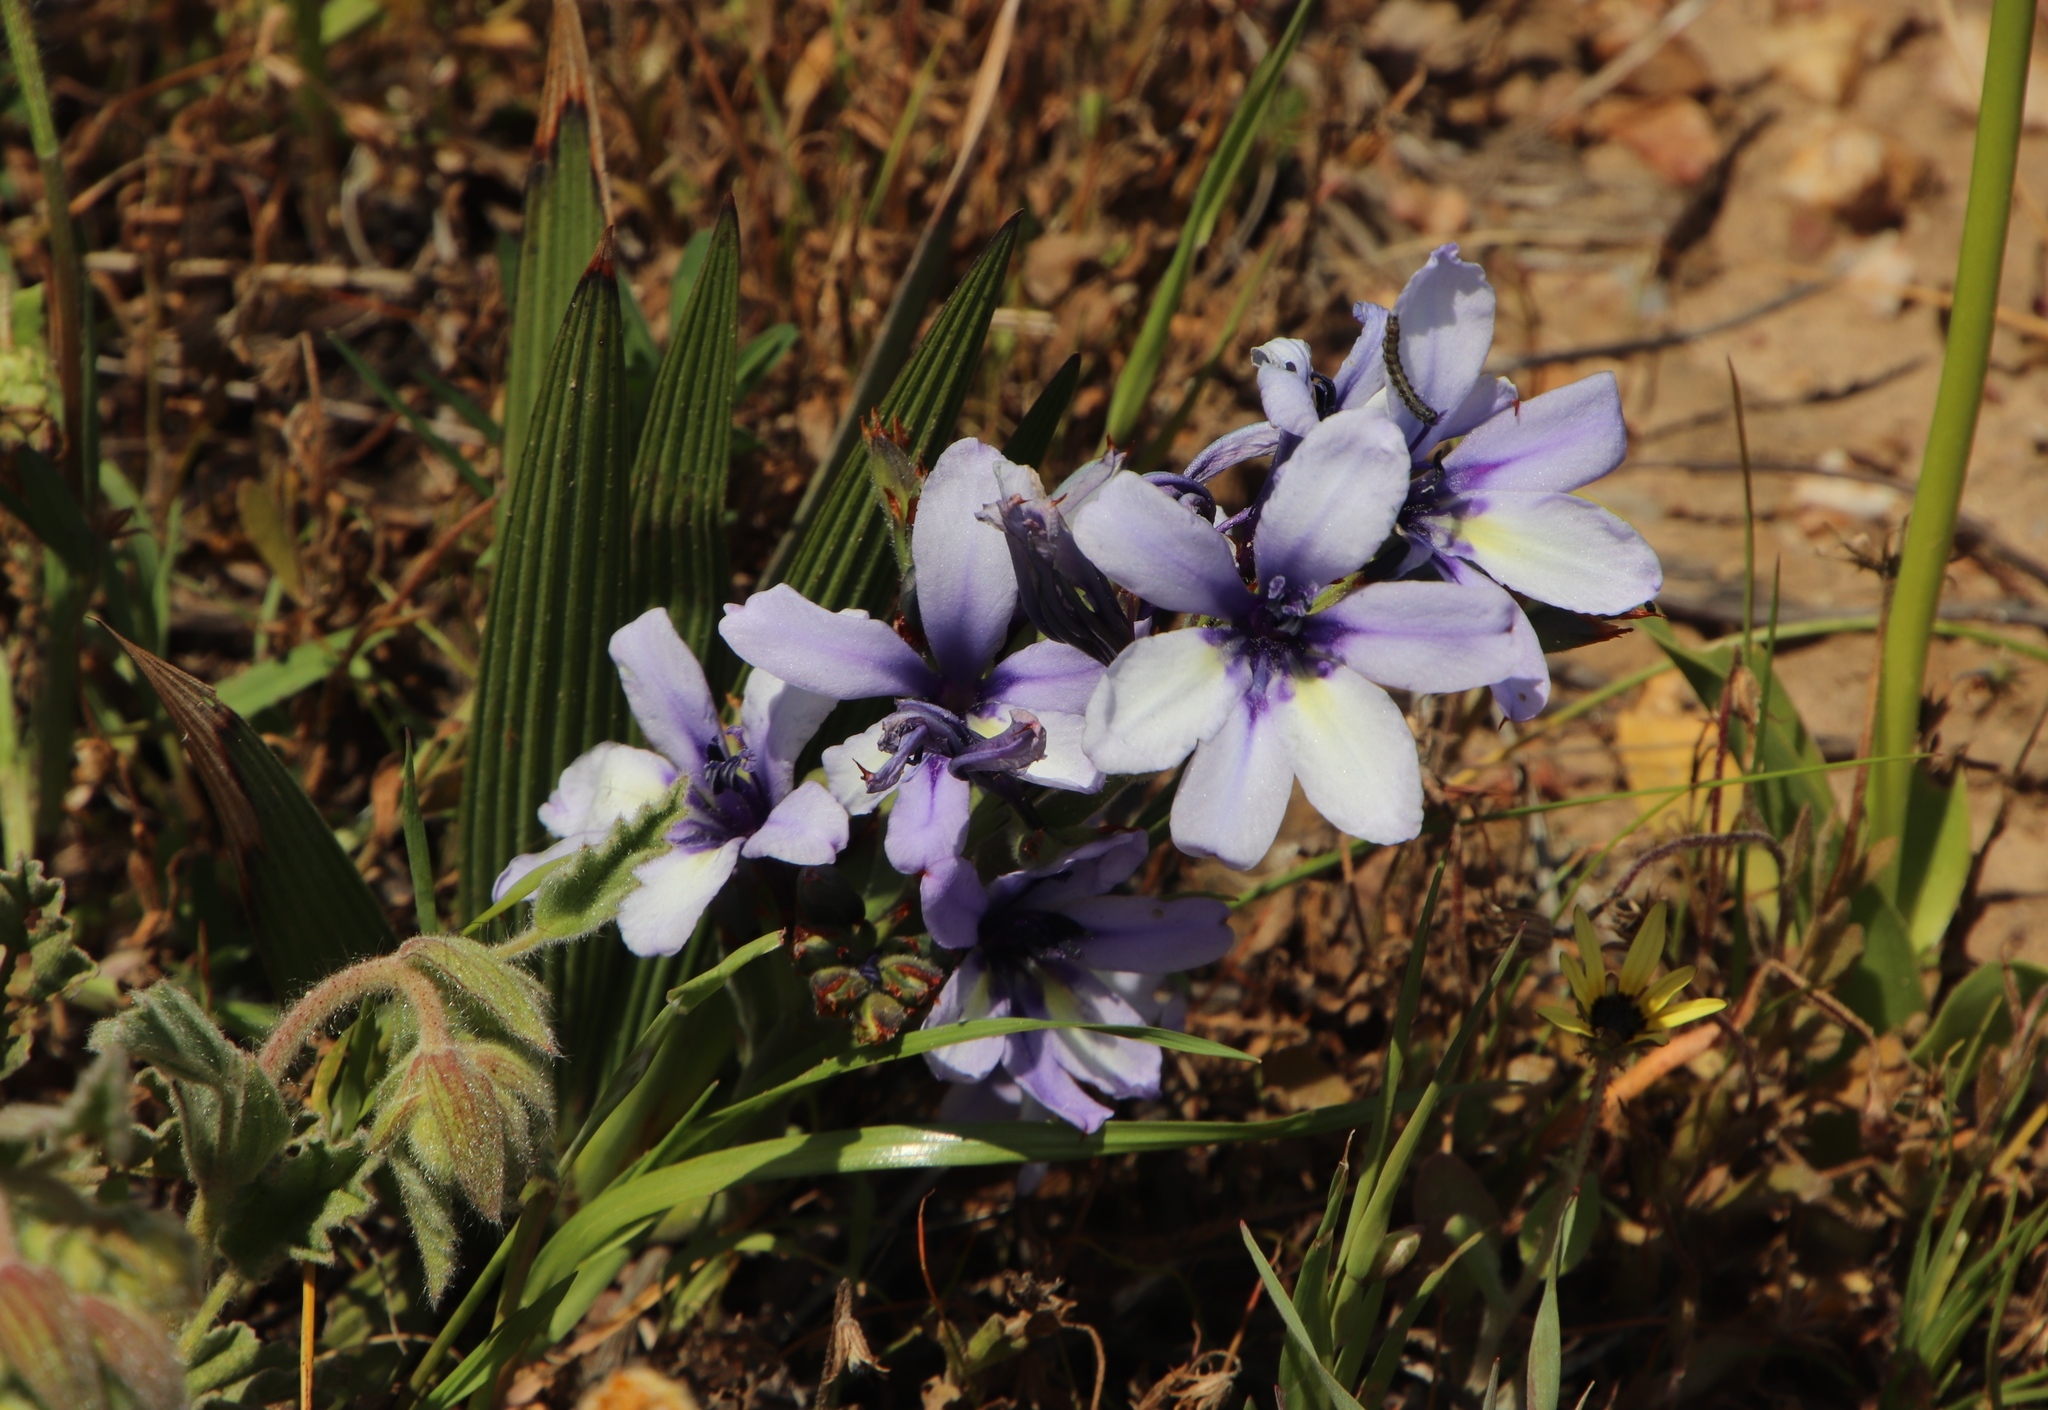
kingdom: Plantae
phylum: Tracheophyta
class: Liliopsida
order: Asparagales
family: Iridaceae
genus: Babiana
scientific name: Babiana fragrans
